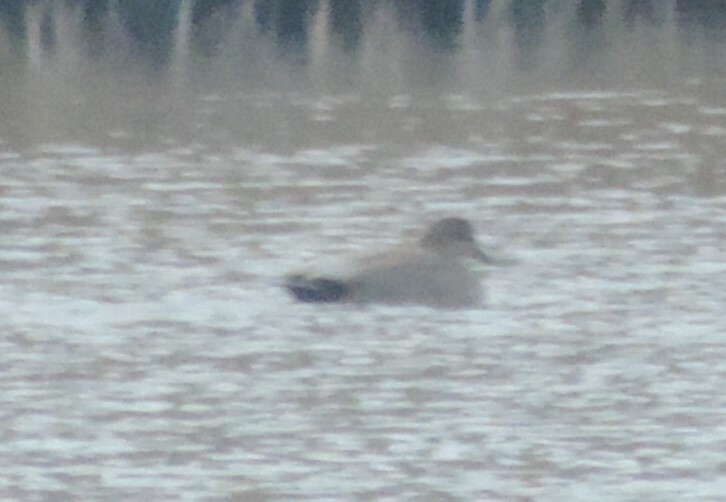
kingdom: Animalia
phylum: Chordata
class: Aves
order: Anseriformes
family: Anatidae
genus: Mareca
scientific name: Mareca strepera
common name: Gadwall
